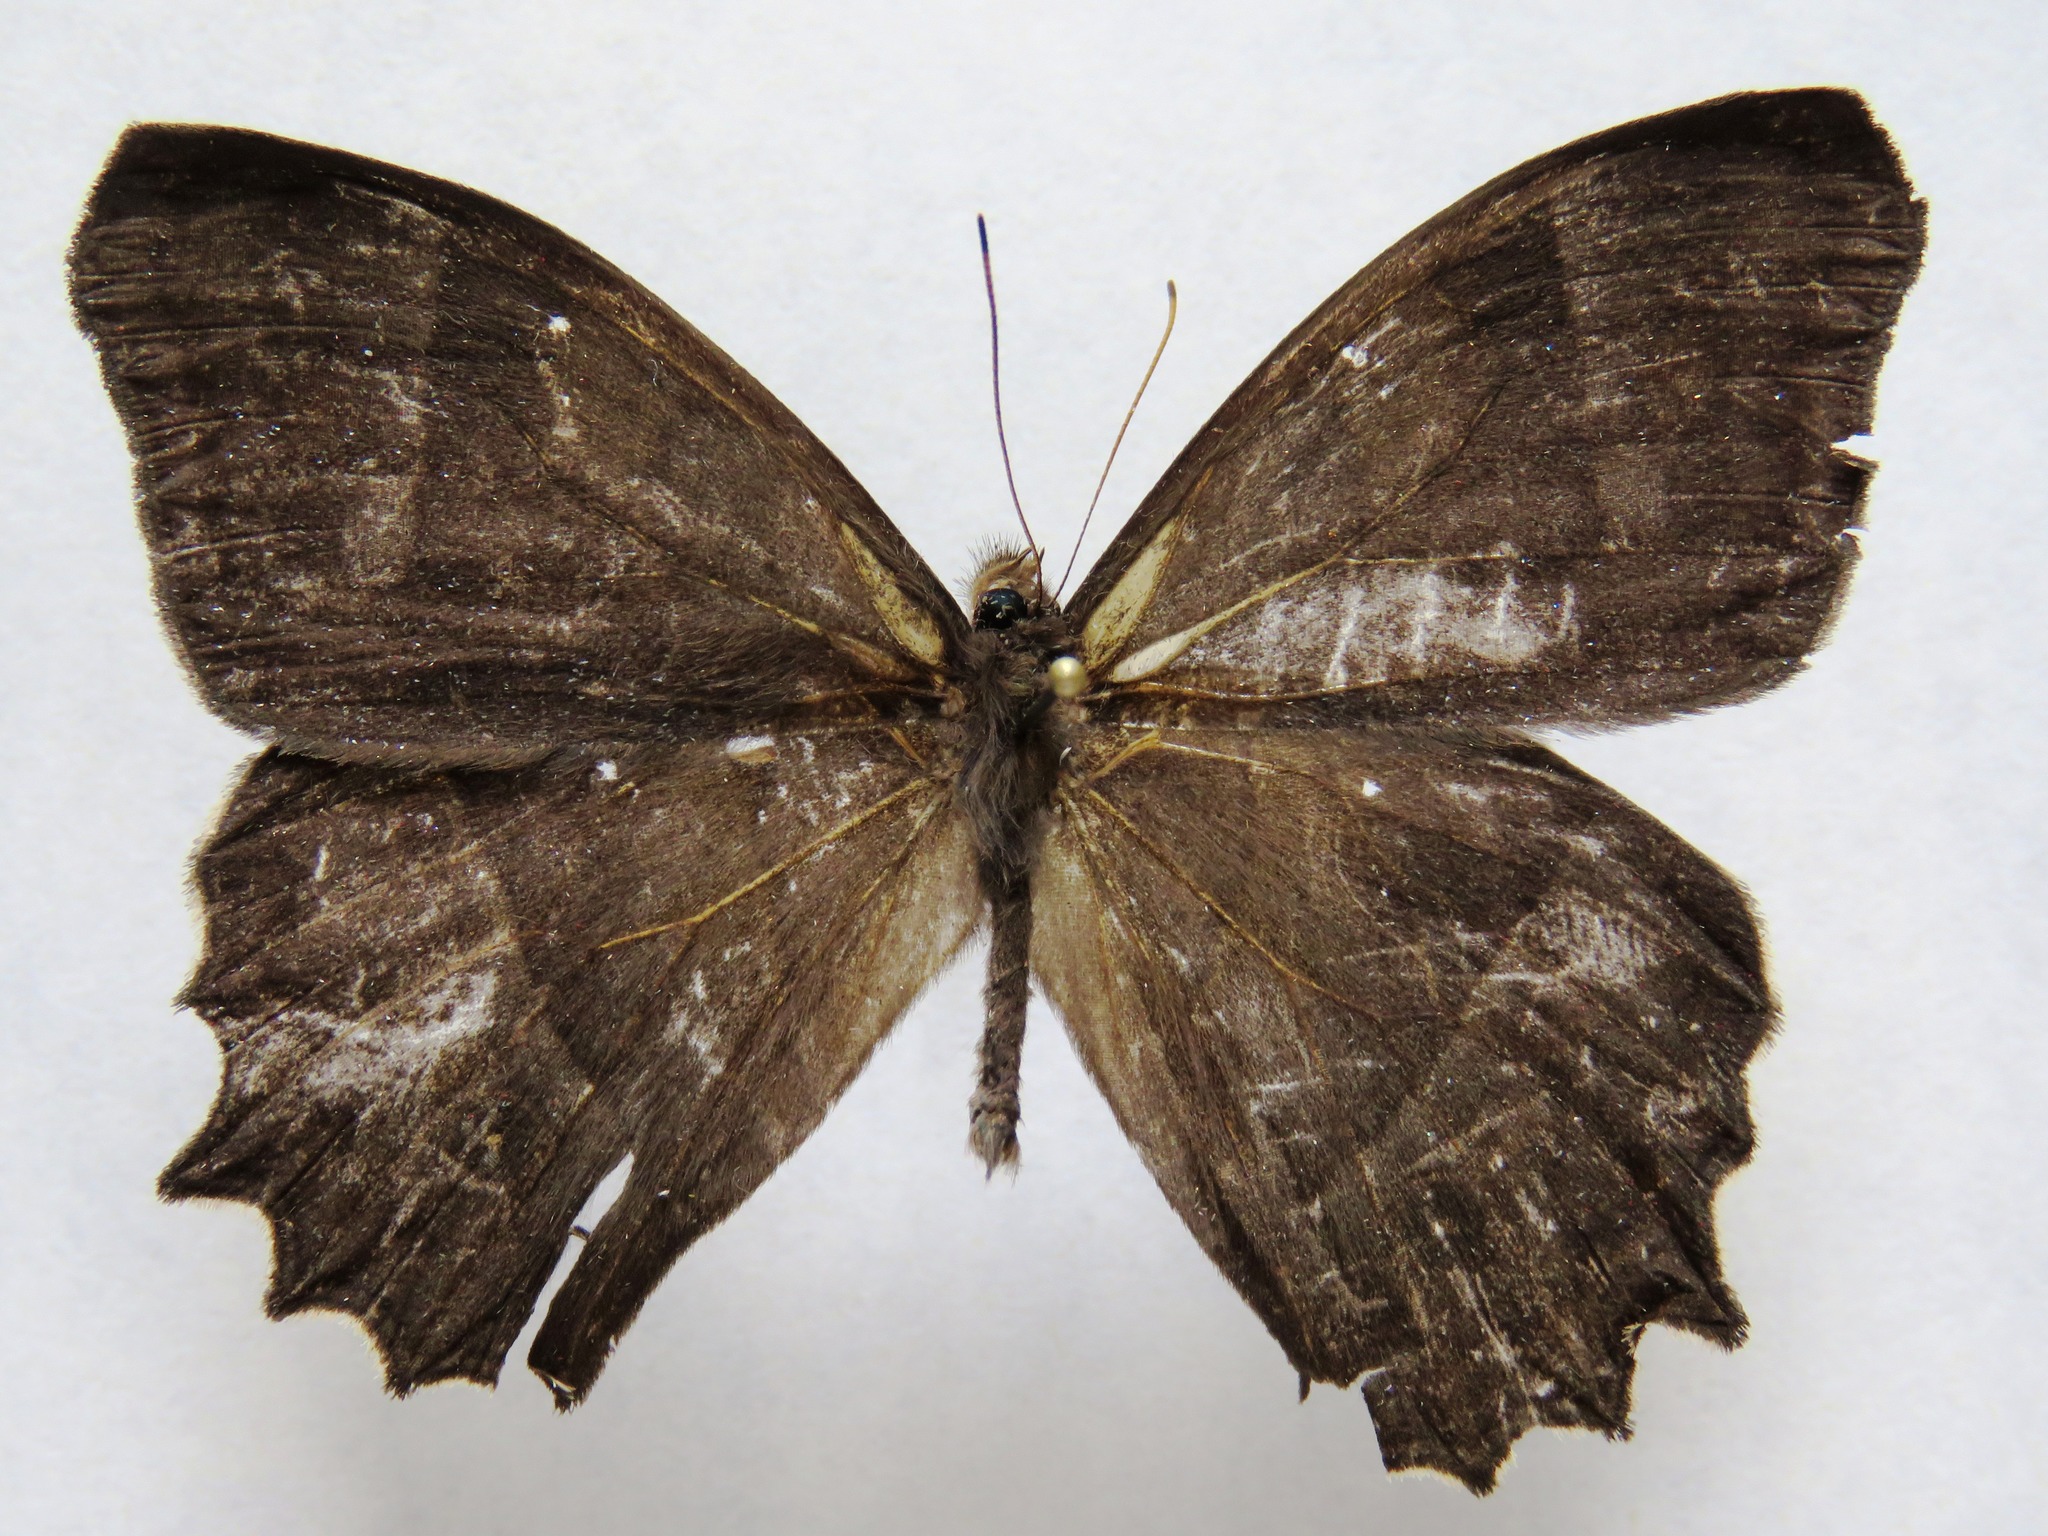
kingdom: Animalia
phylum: Arthropoda
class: Insecta
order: Lepidoptera
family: Nymphalidae
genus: Taygetis
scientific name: Taygetis andromeda
